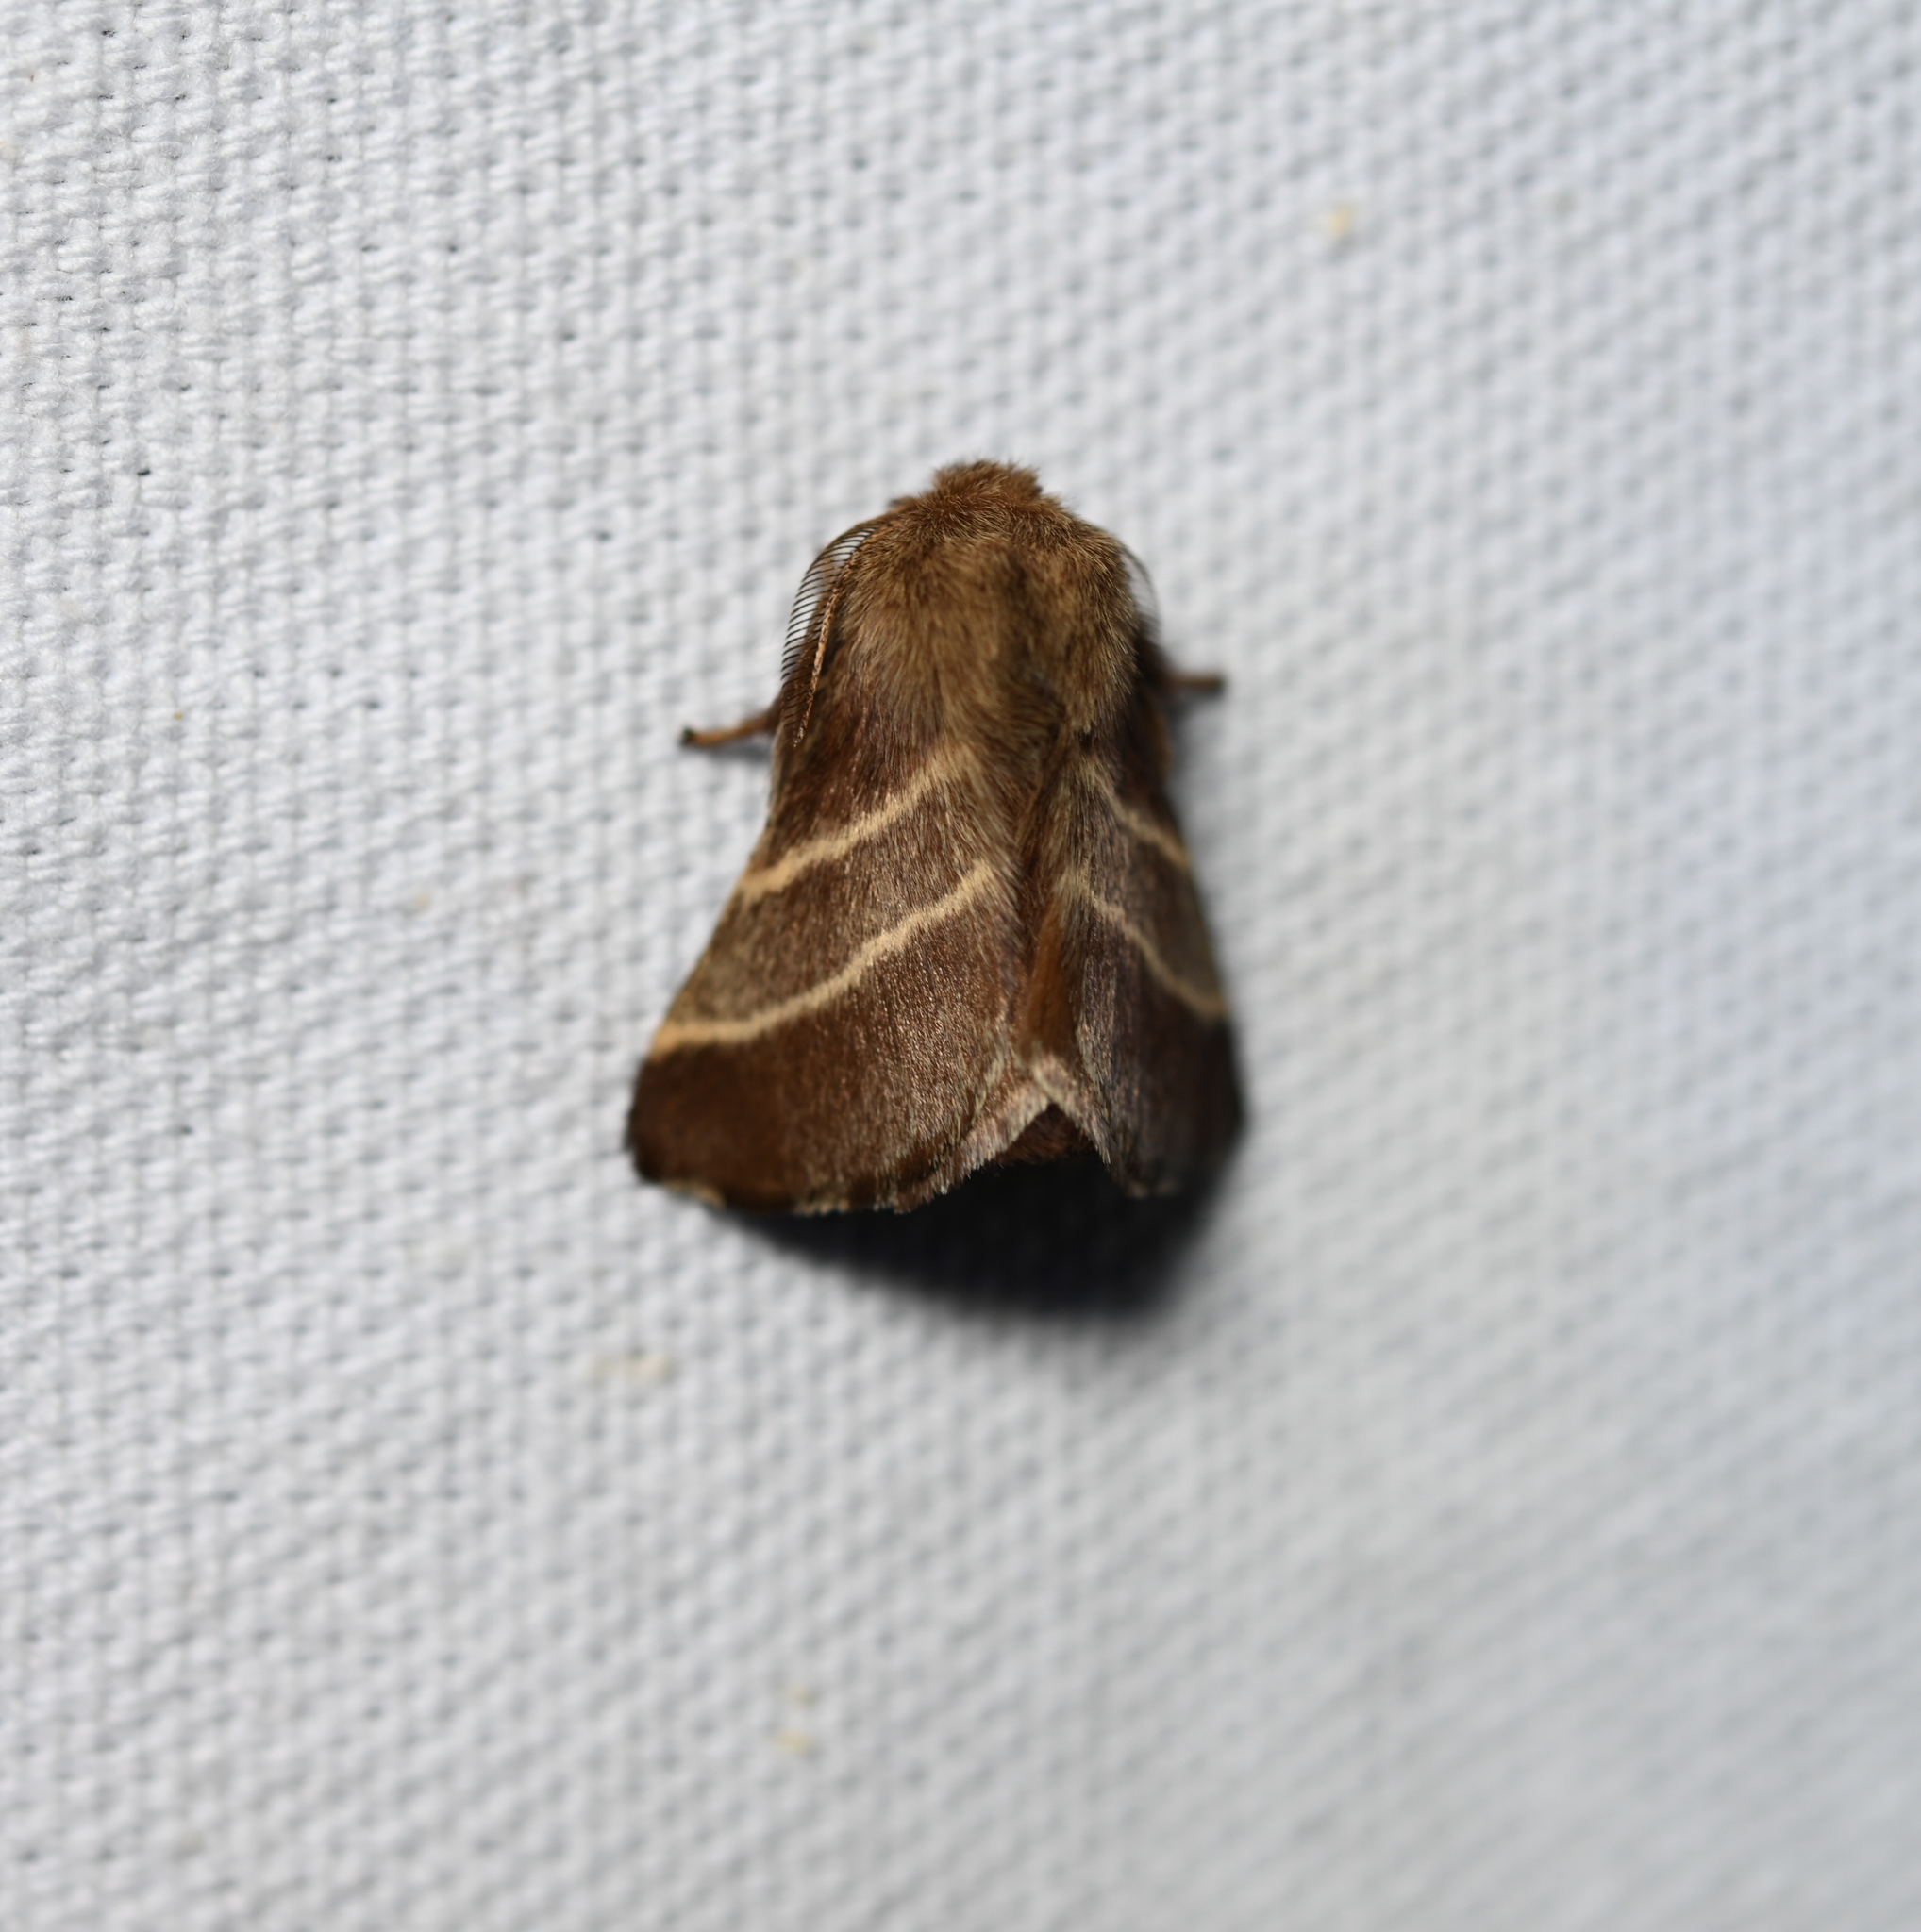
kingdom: Animalia
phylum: Arthropoda
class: Insecta
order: Lepidoptera
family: Lasiocampidae
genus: Malacosoma
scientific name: Malacosoma americana
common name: Eastern tent caterpillar moth
